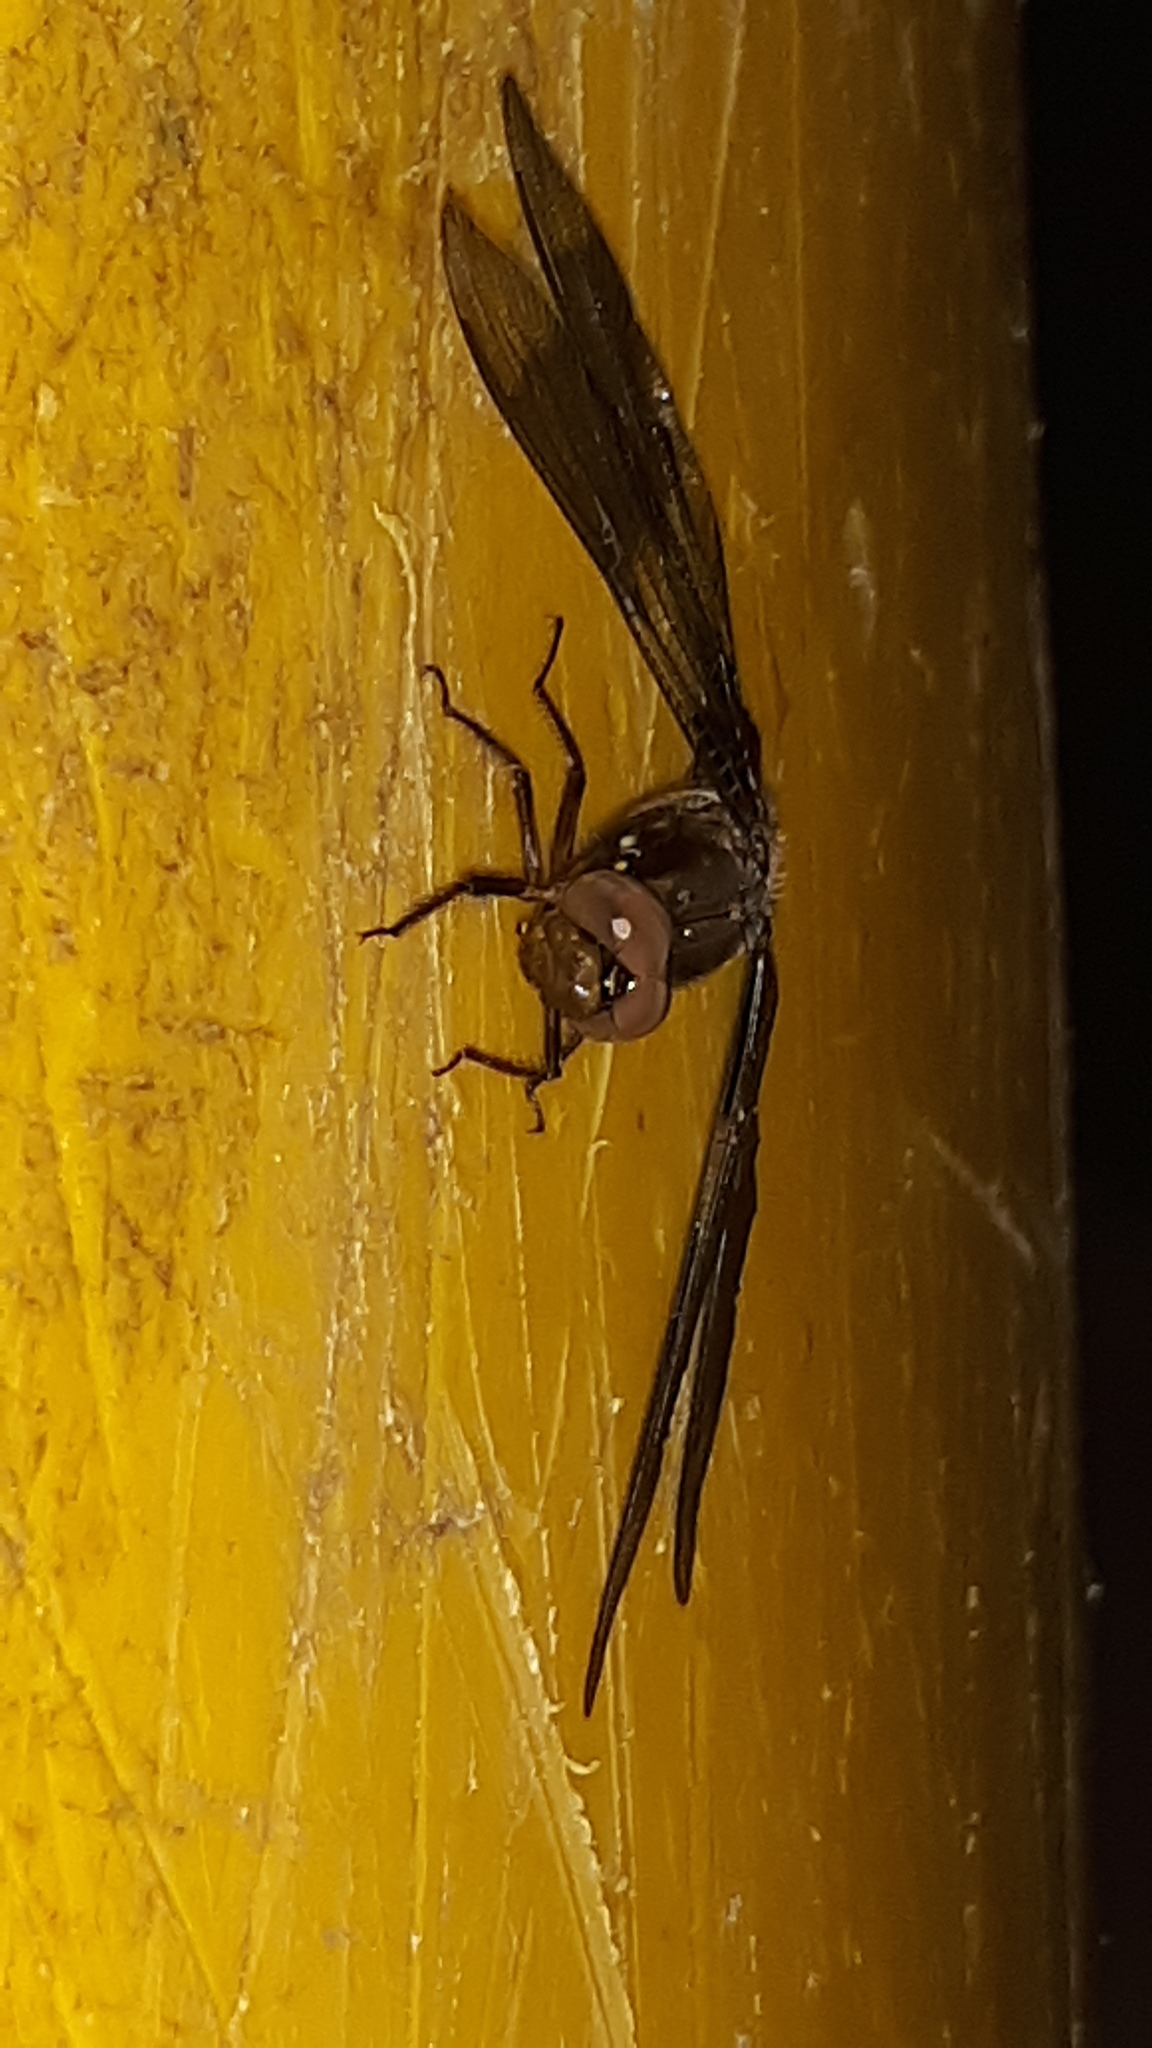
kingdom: Animalia
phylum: Arthropoda
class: Insecta
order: Odonata
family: Libellulidae
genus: Plathemis
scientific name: Plathemis lydia
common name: Common whitetail
